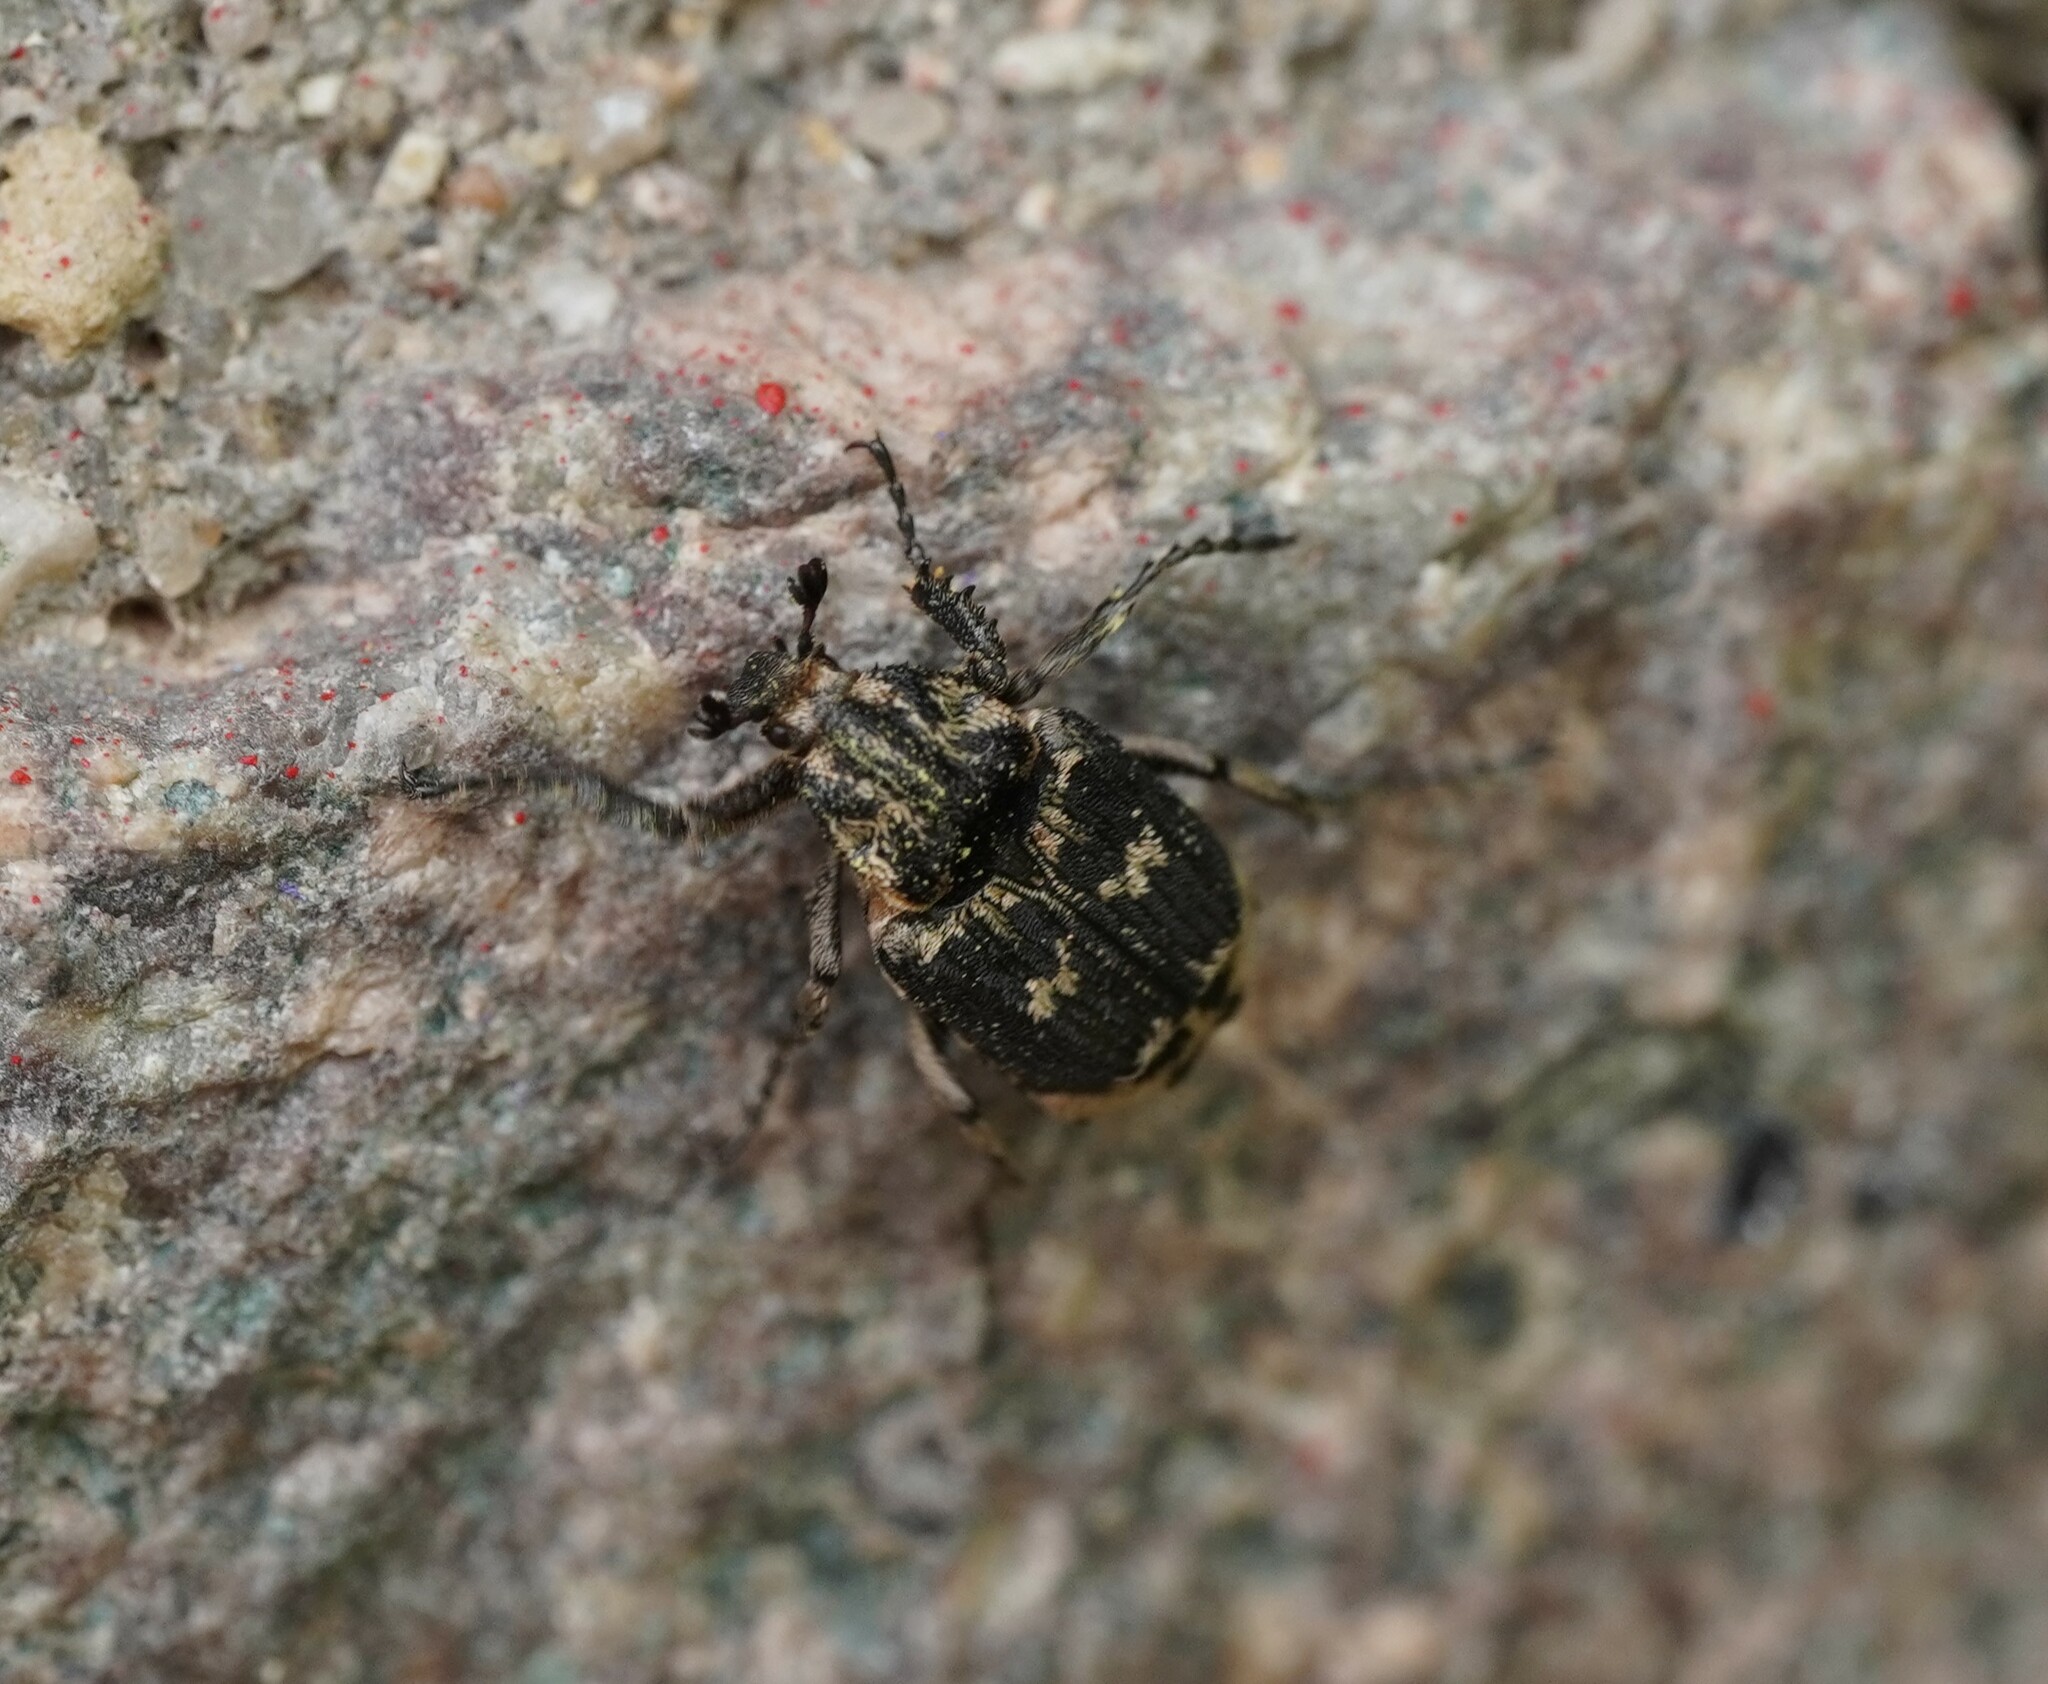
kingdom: Animalia
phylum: Arthropoda
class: Insecta
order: Coleoptera
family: Scarabaeidae
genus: Valgus
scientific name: Valgus hemipterus
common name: Bug flower chafer
